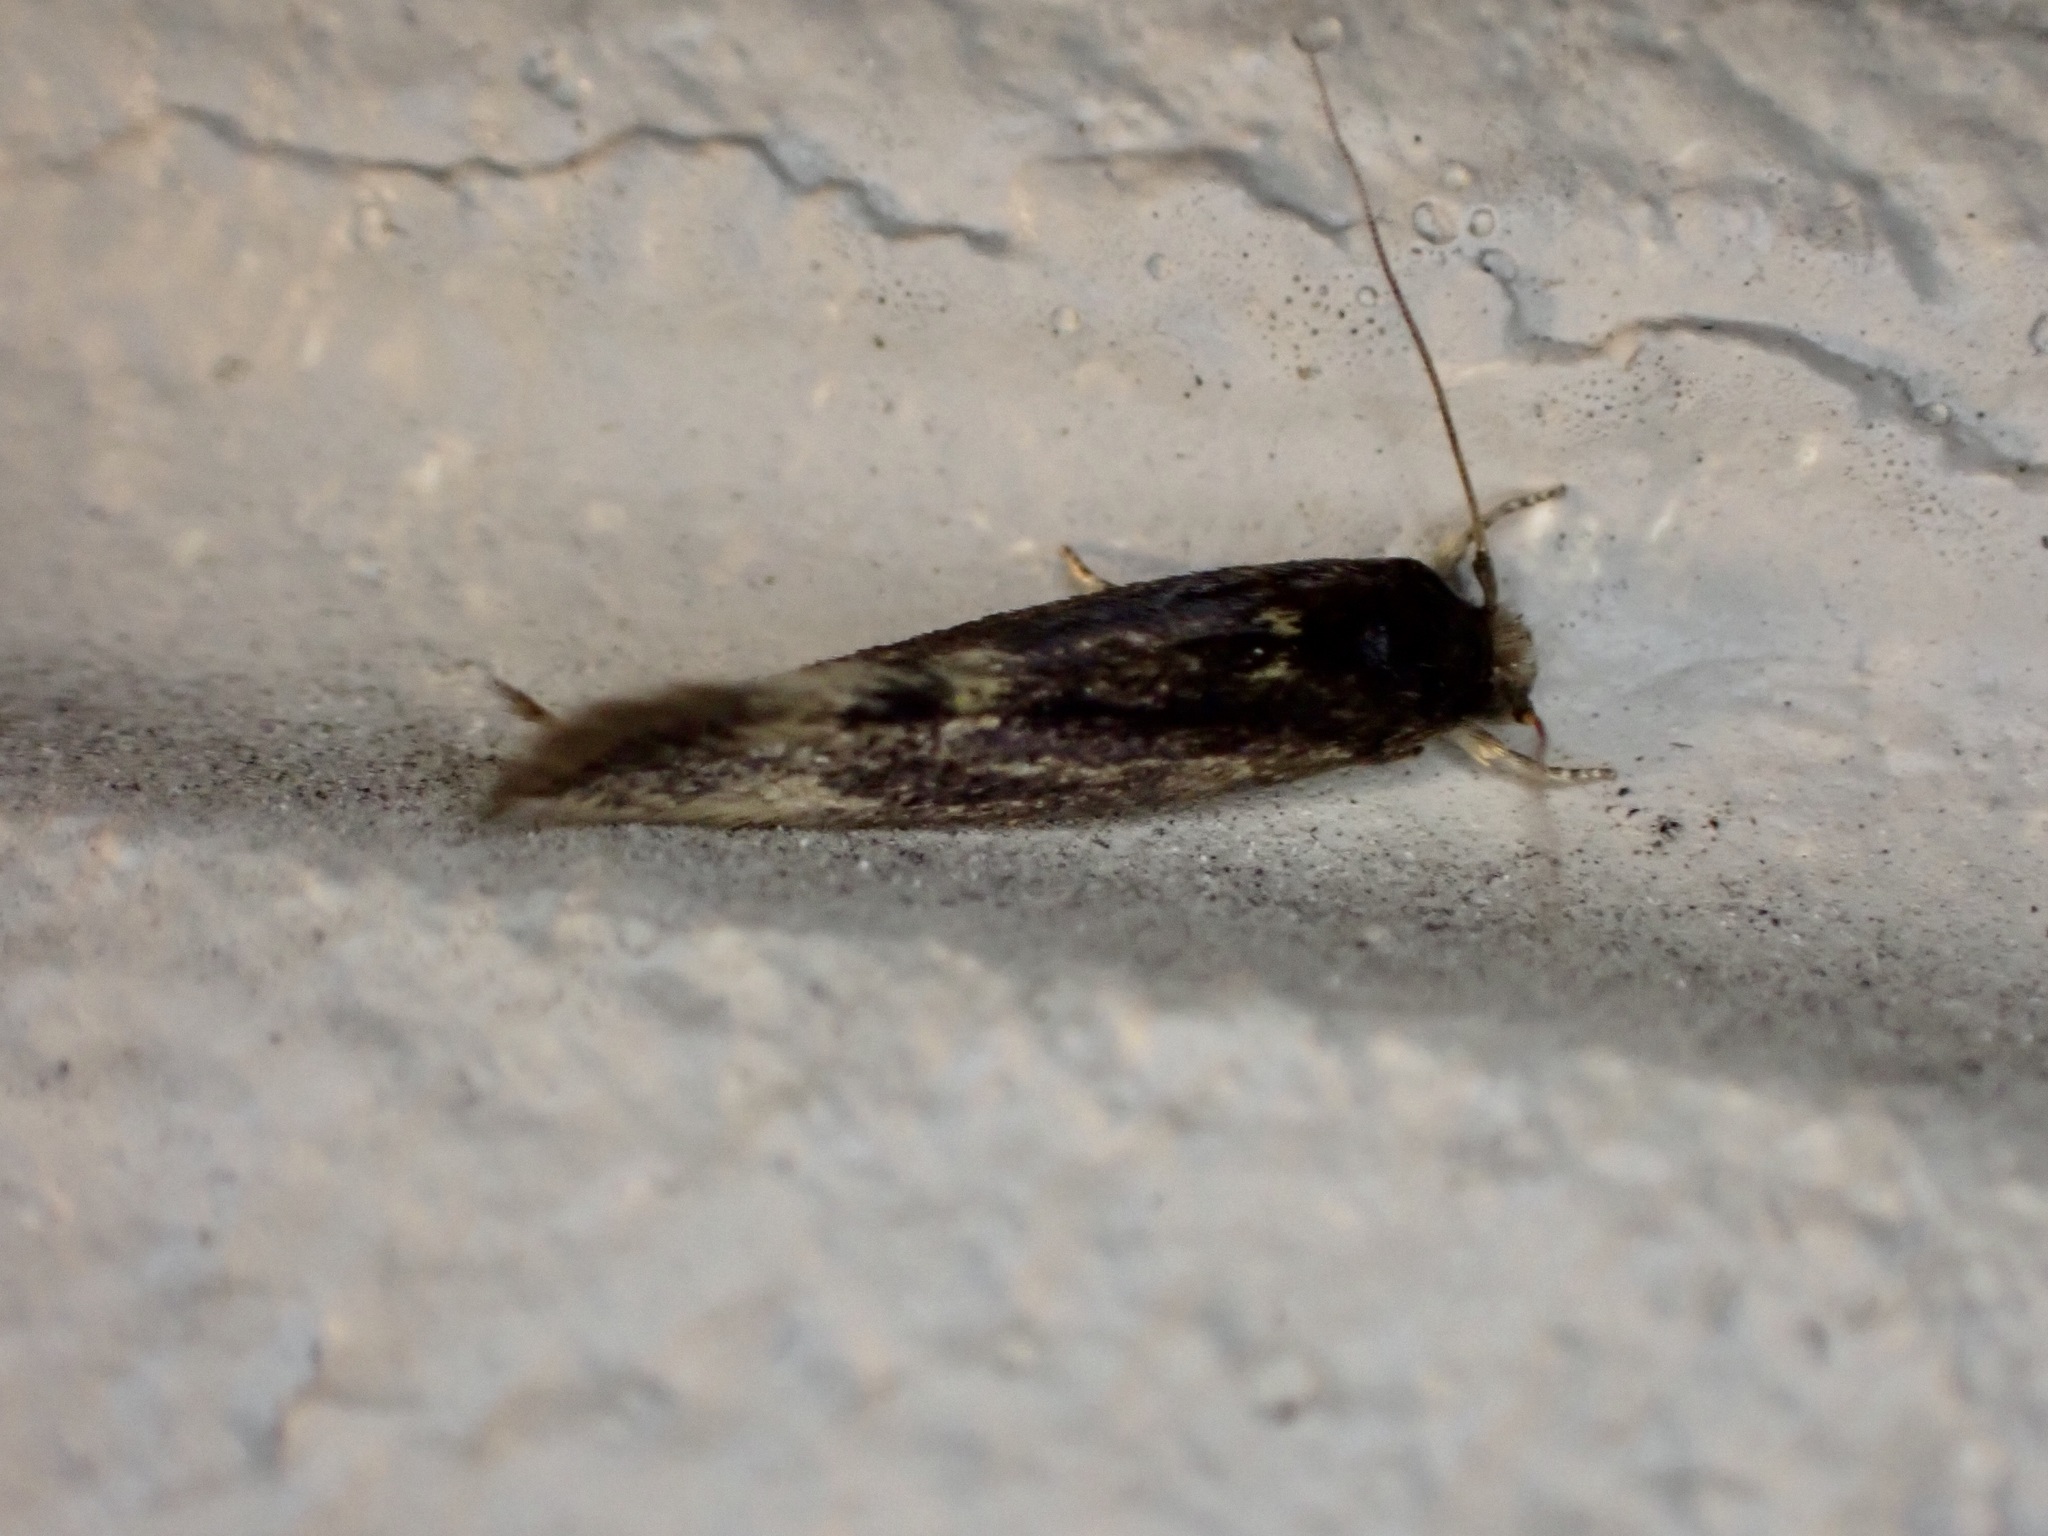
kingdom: Animalia
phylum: Arthropoda
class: Insecta
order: Lepidoptera
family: Tineidae
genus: Opogona
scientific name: Opogona omoscopa
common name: Moth
